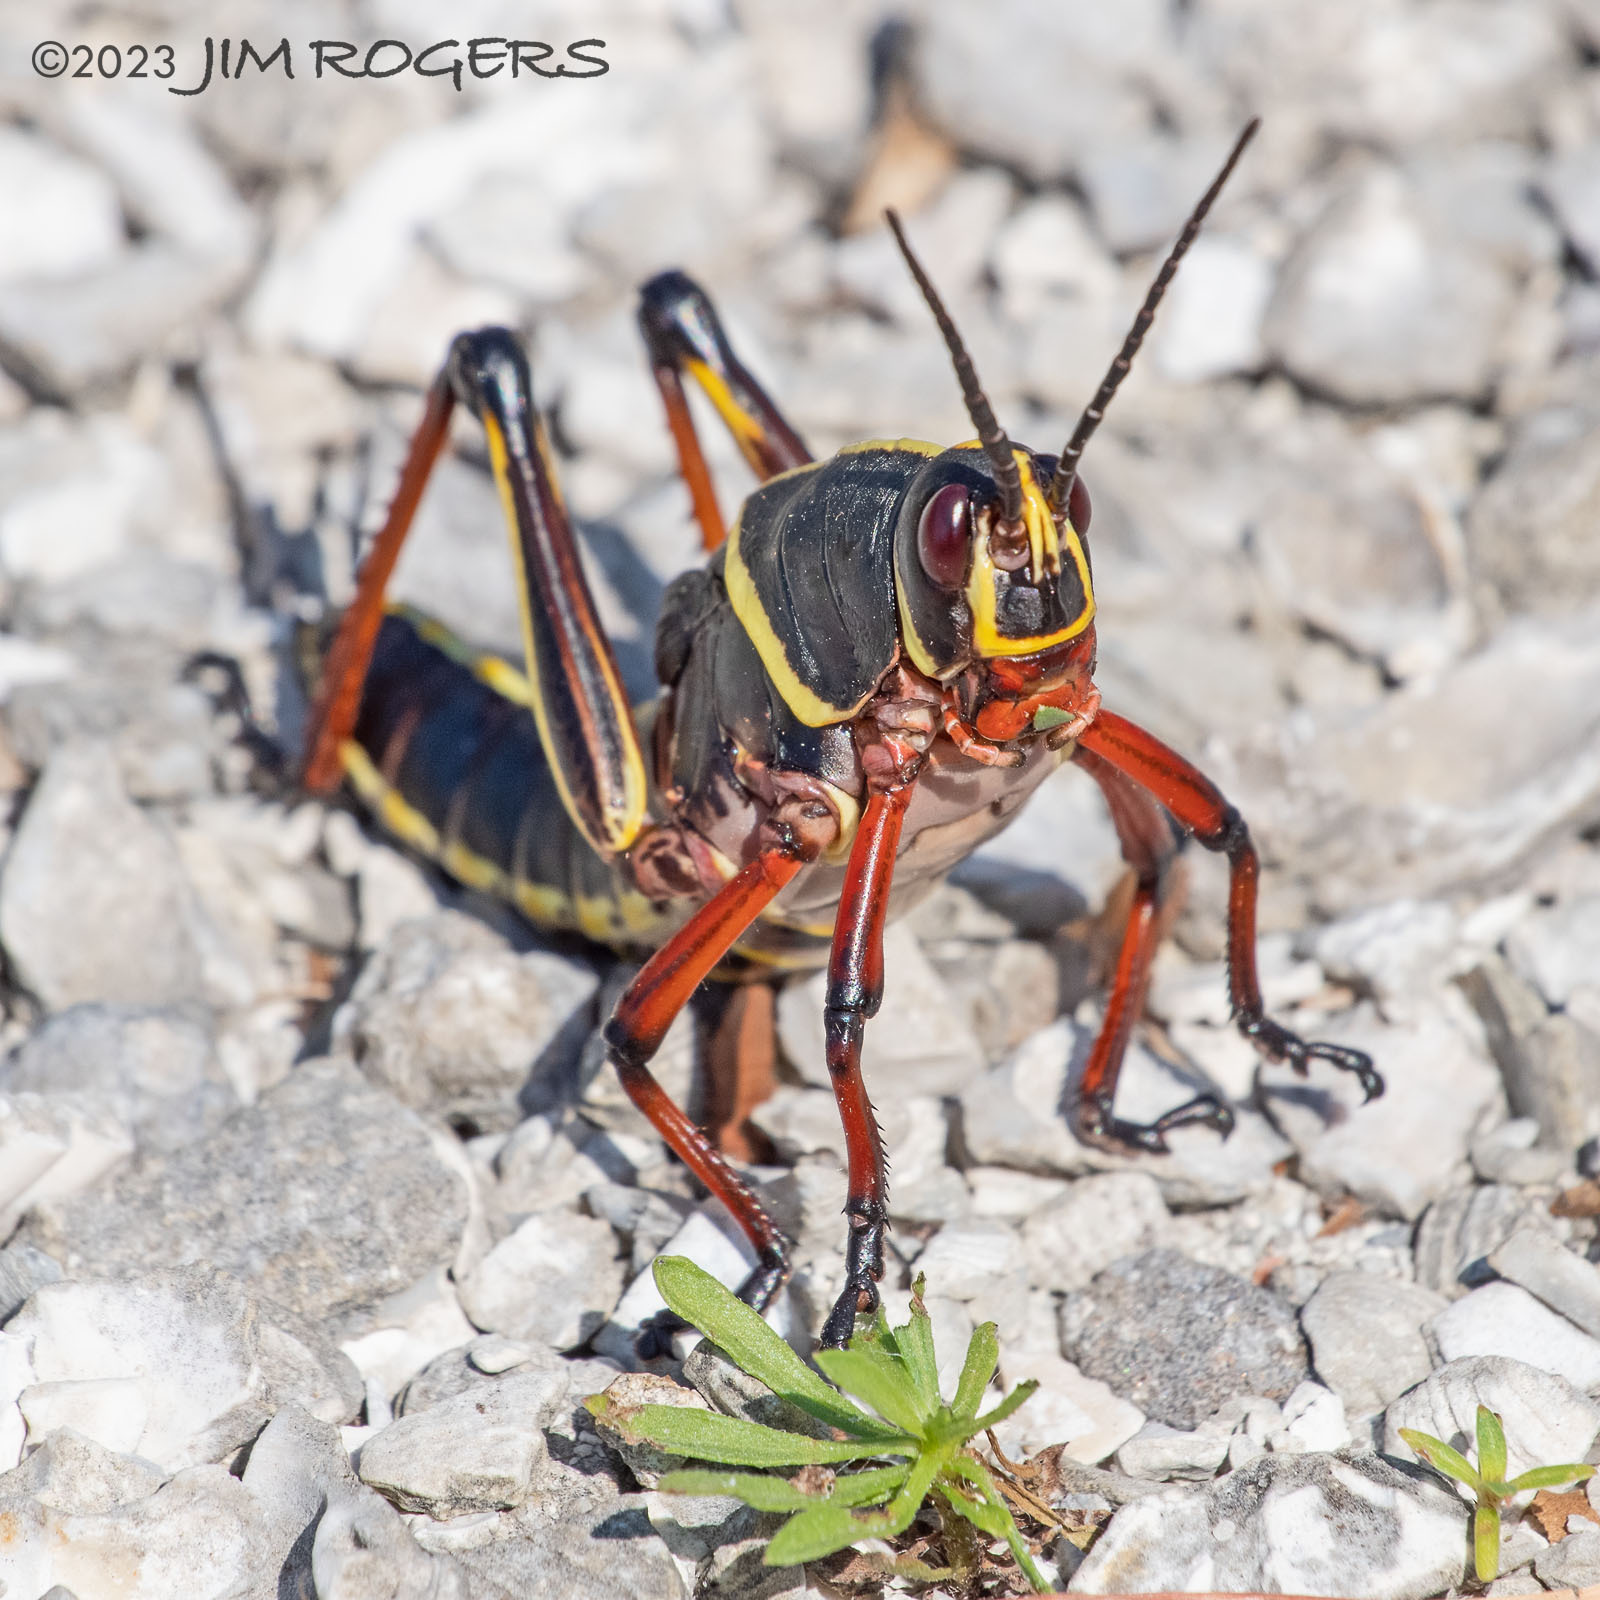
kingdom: Animalia
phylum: Arthropoda
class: Insecta
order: Orthoptera
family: Romaleidae
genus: Romalea
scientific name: Romalea microptera
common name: Eastern lubber grasshopper
